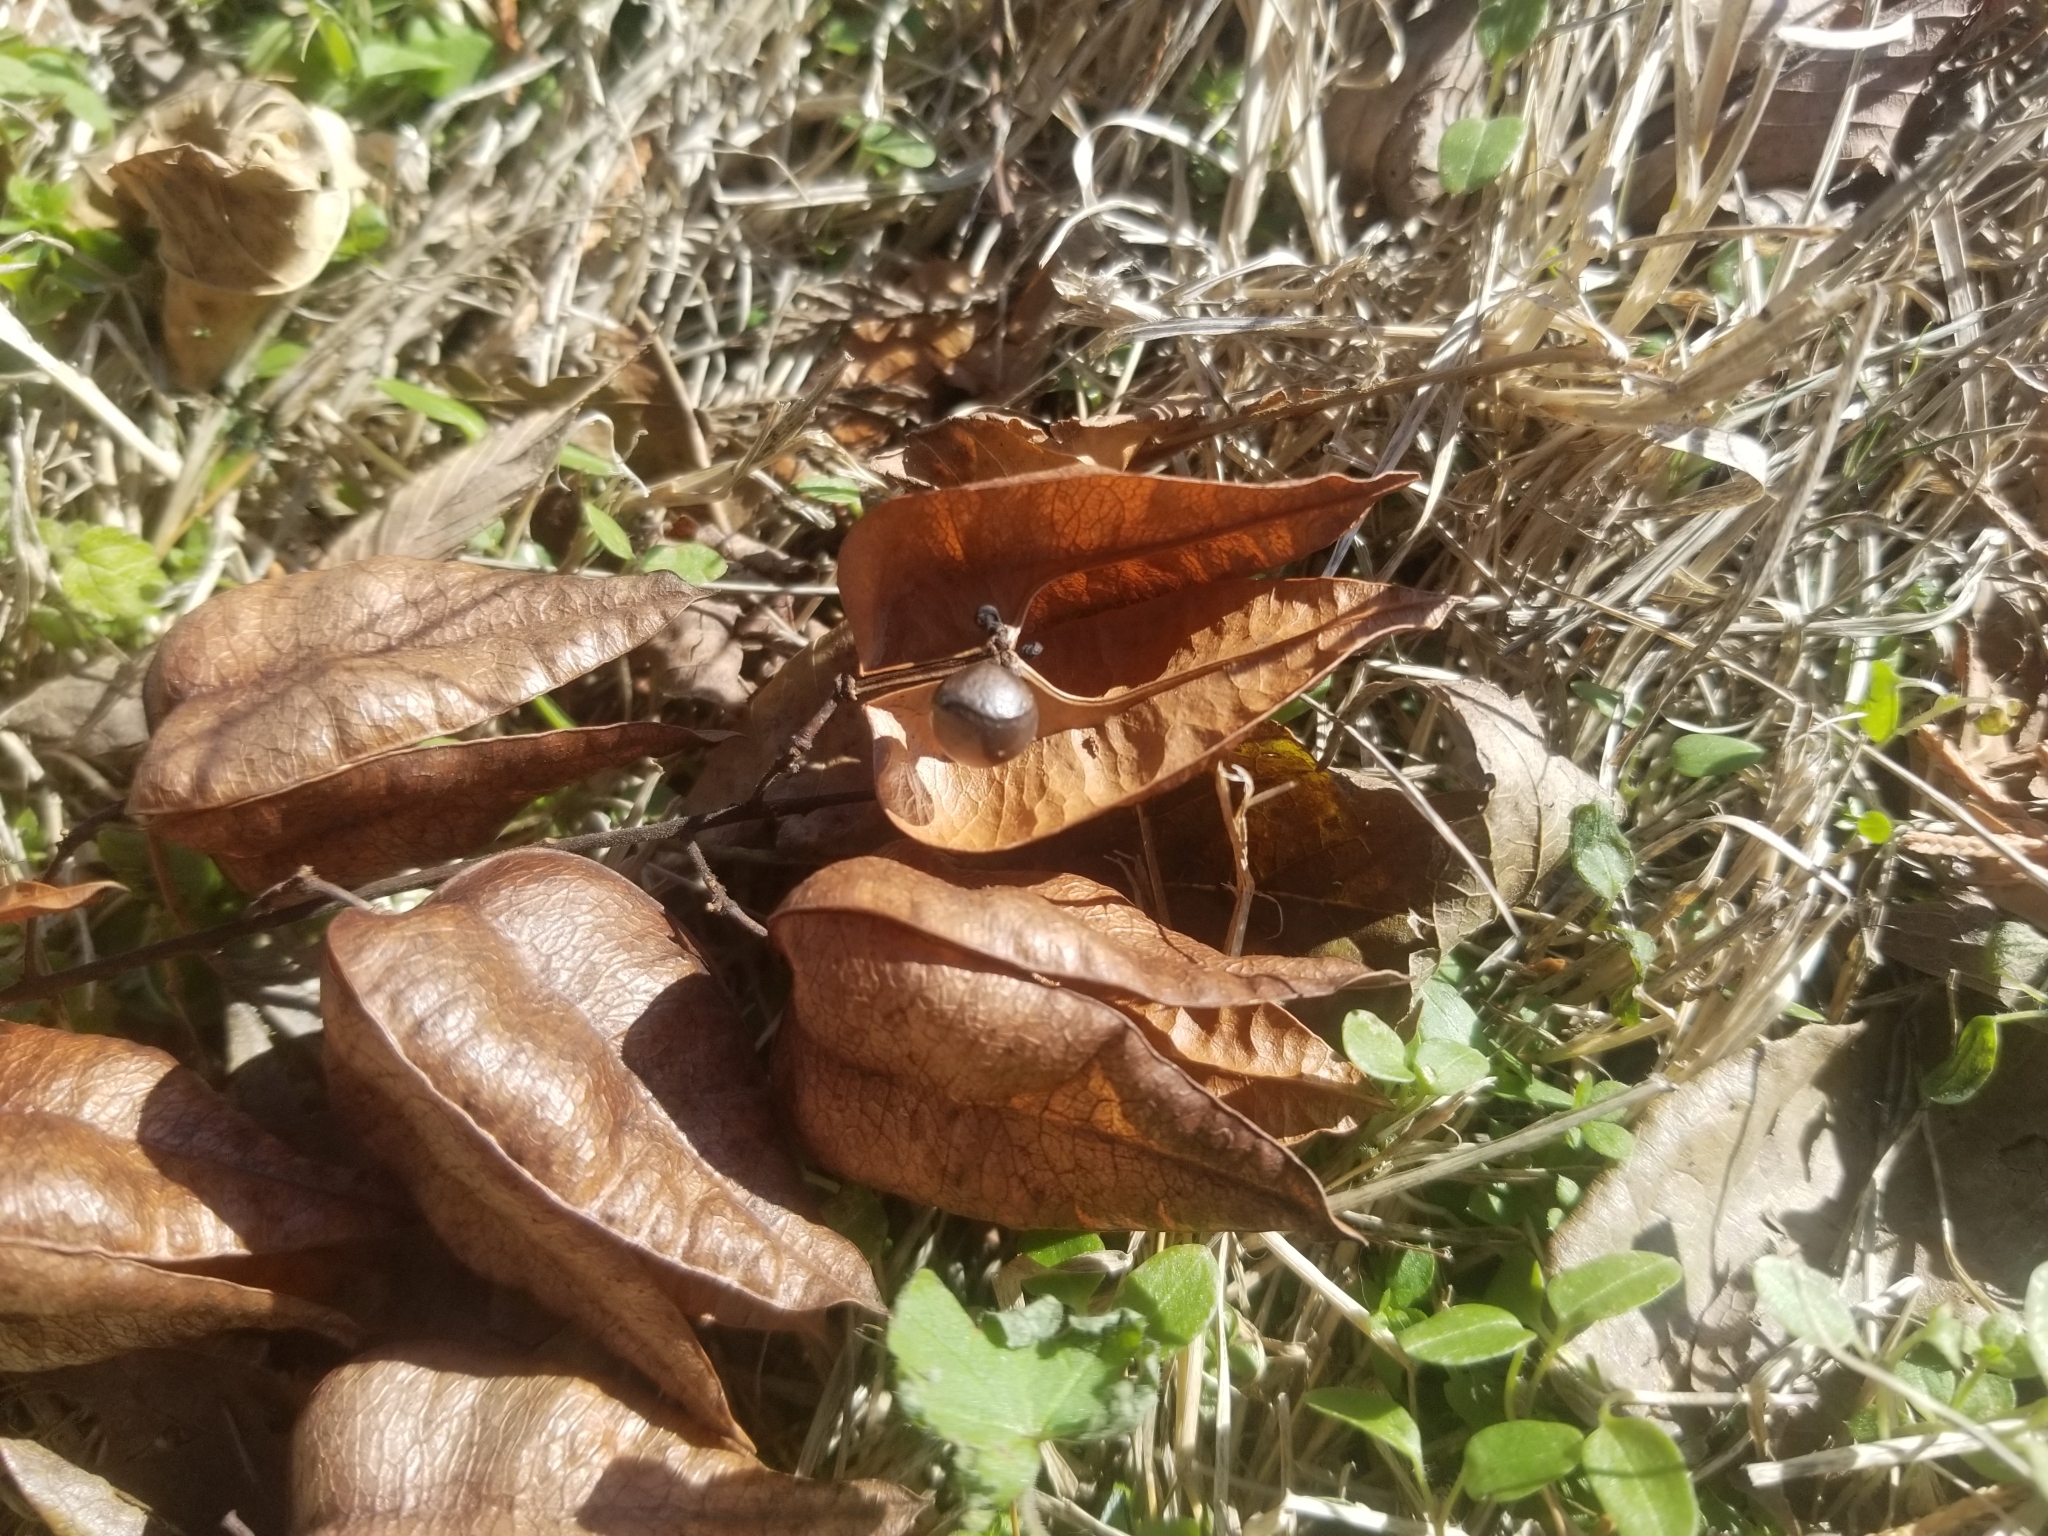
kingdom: Plantae
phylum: Tracheophyta
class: Magnoliopsida
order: Sapindales
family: Sapindaceae
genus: Koelreuteria
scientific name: Koelreuteria paniculata
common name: Pride-of-india
